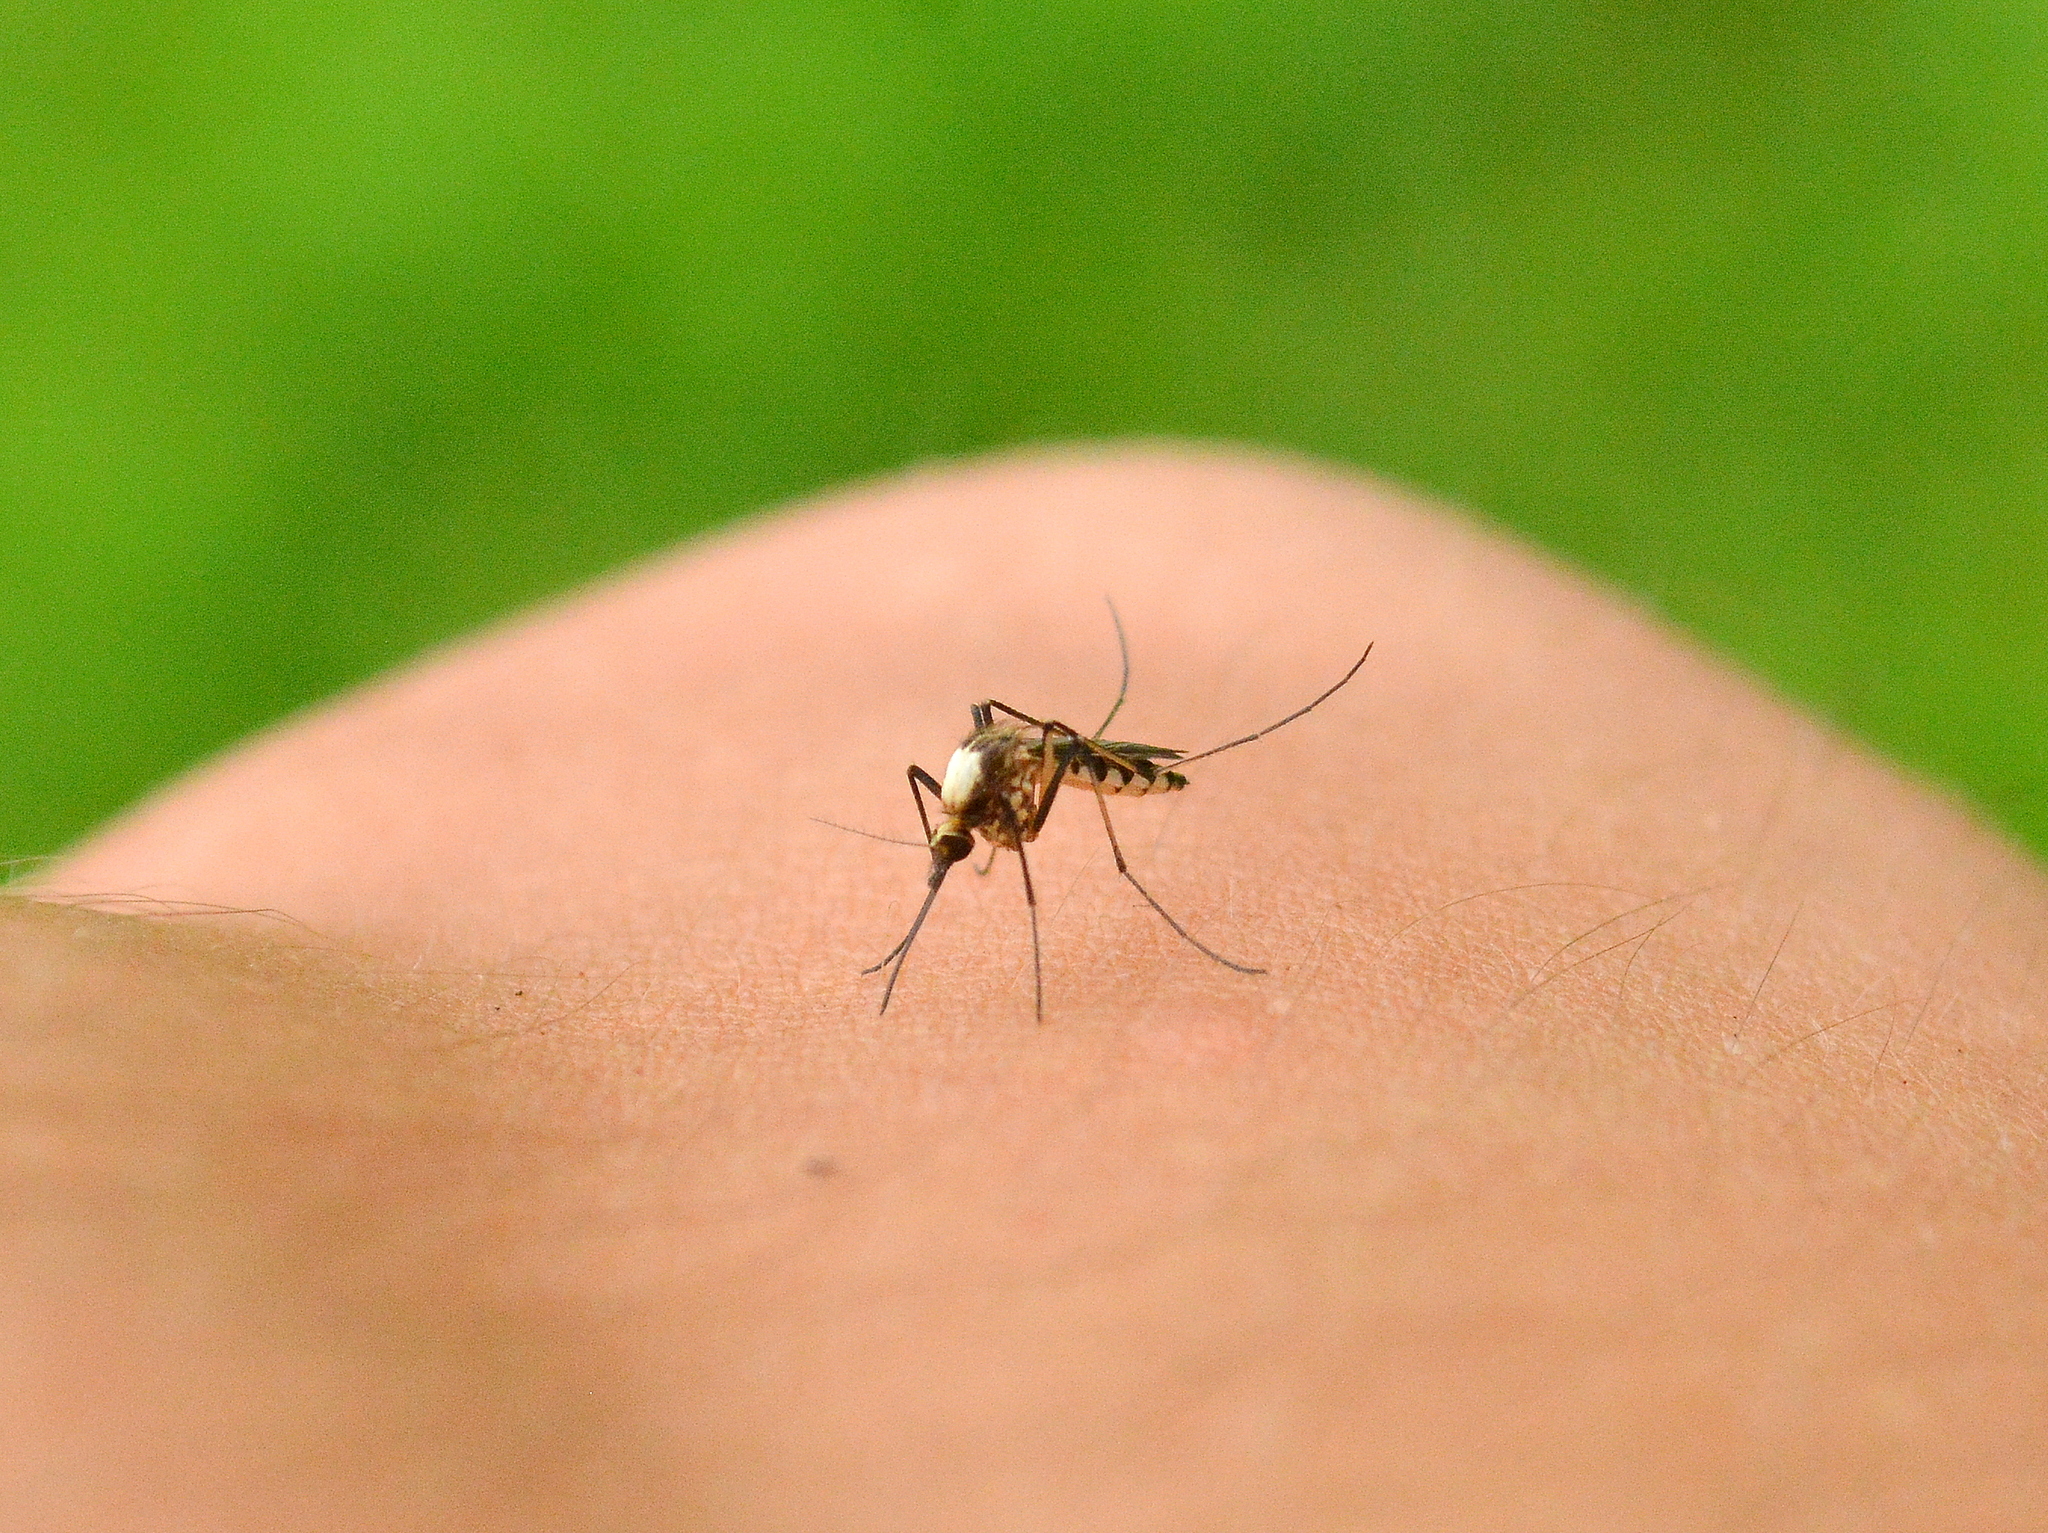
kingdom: Animalia
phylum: Arthropoda
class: Insecta
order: Diptera
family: Culicidae
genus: Aedes
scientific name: Aedes scapularis
